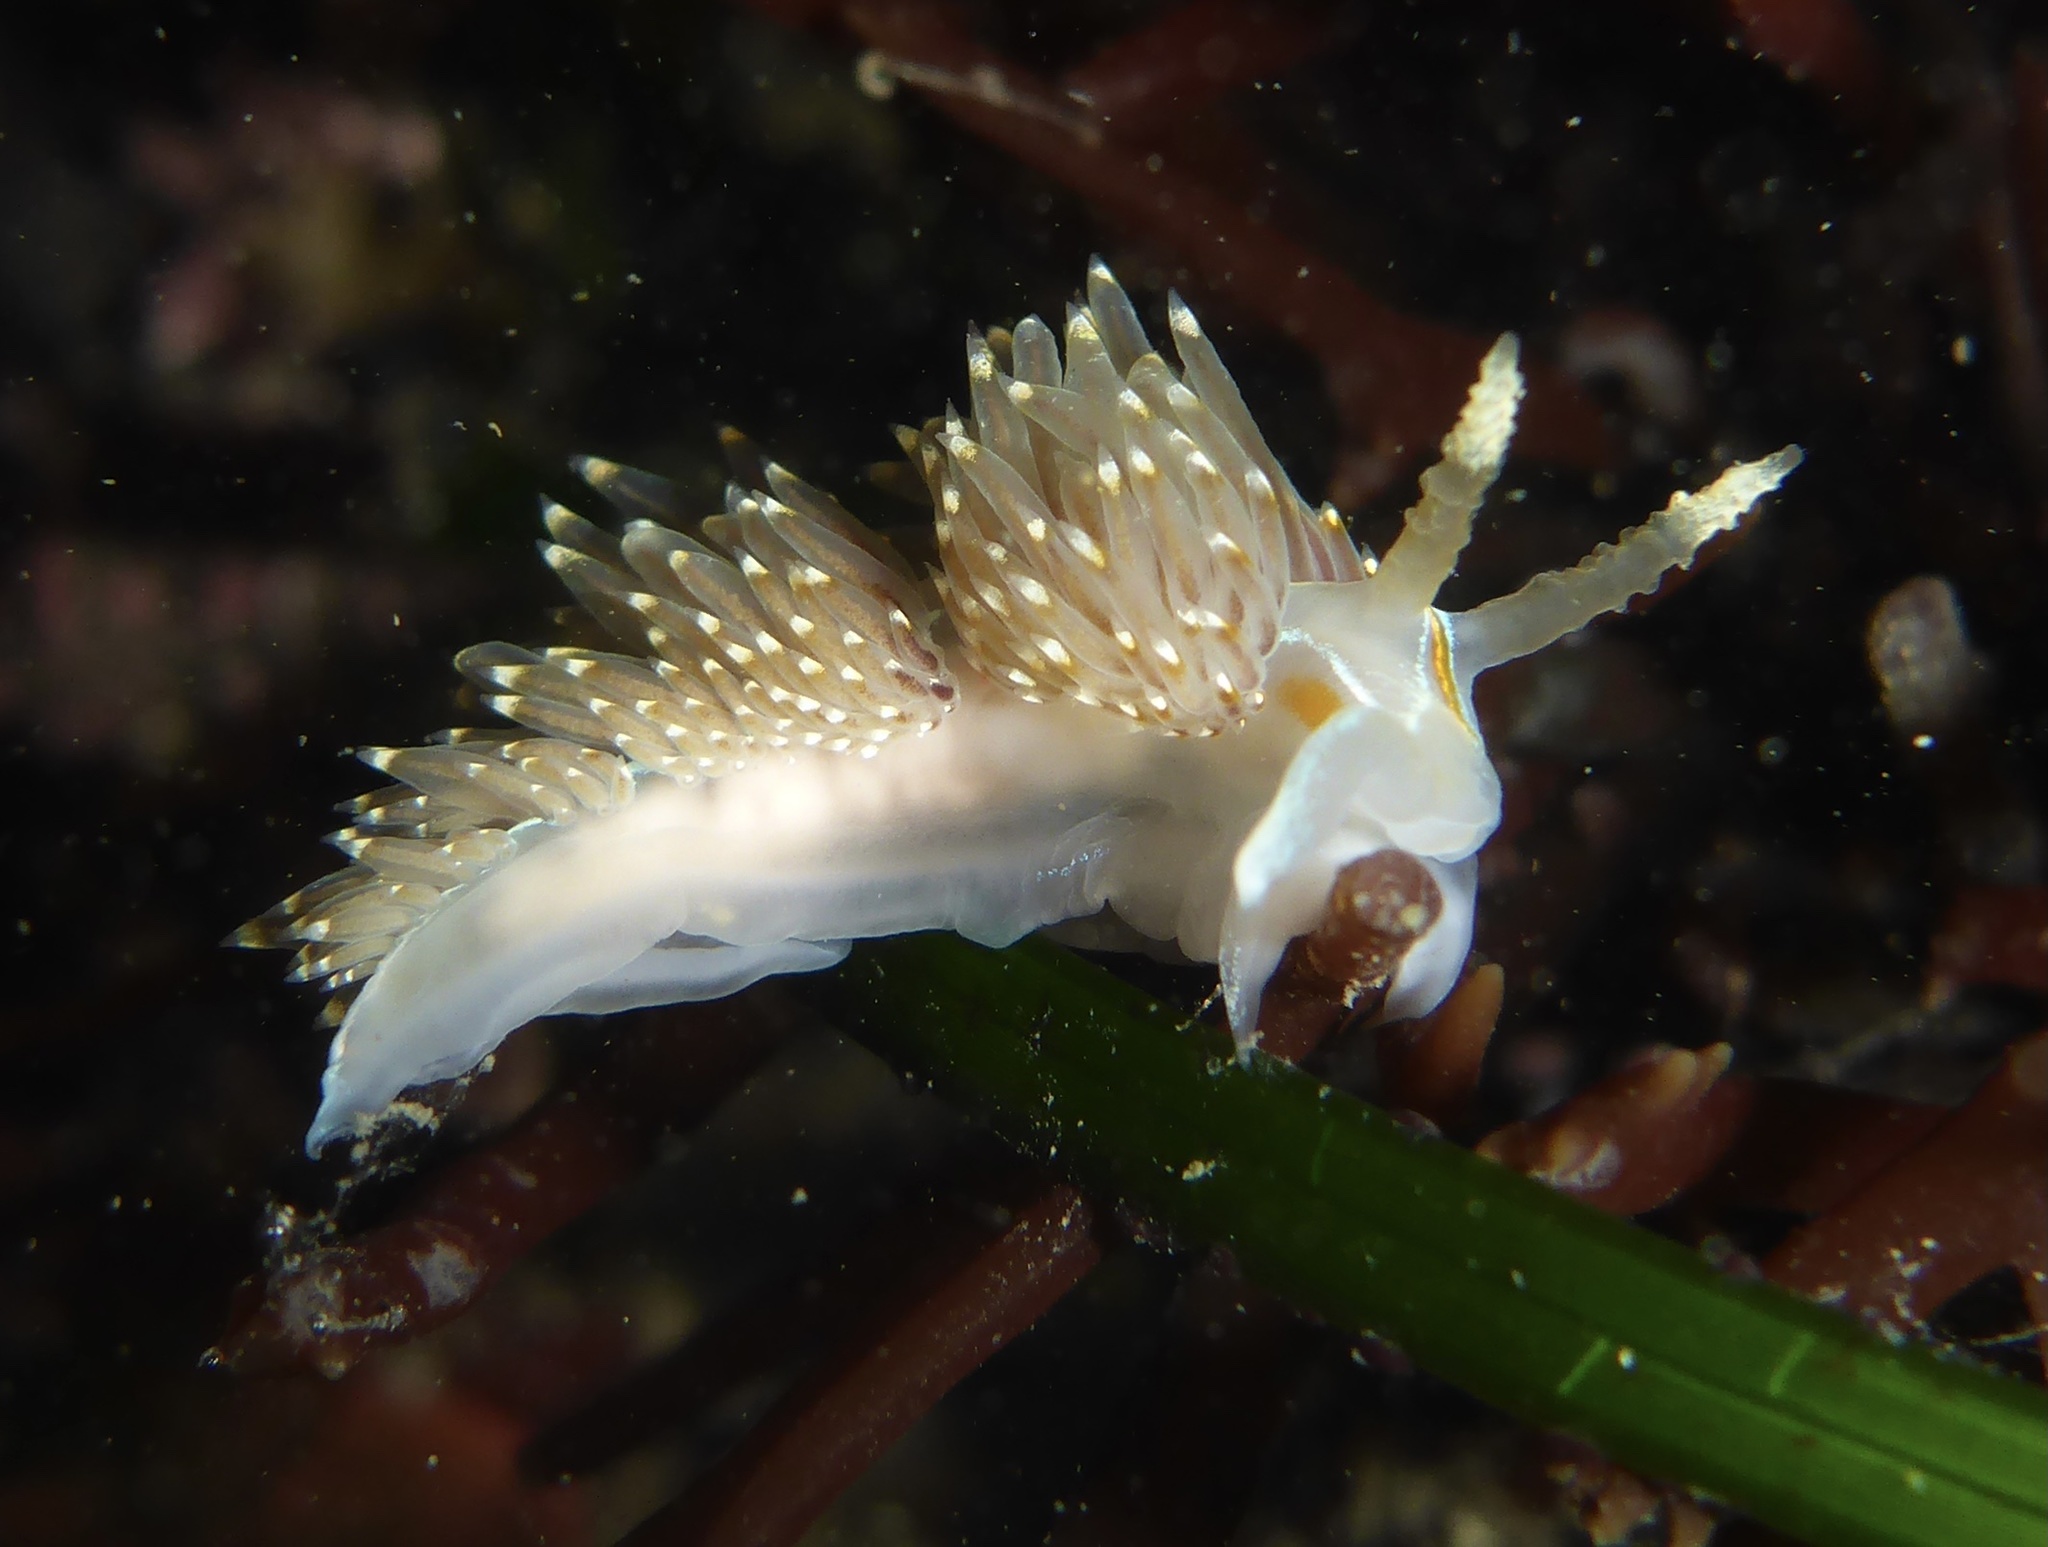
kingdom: Animalia
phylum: Mollusca
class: Gastropoda
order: Nudibranchia
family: Myrrhinidae
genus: Hermissenda
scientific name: Hermissenda opalescens
